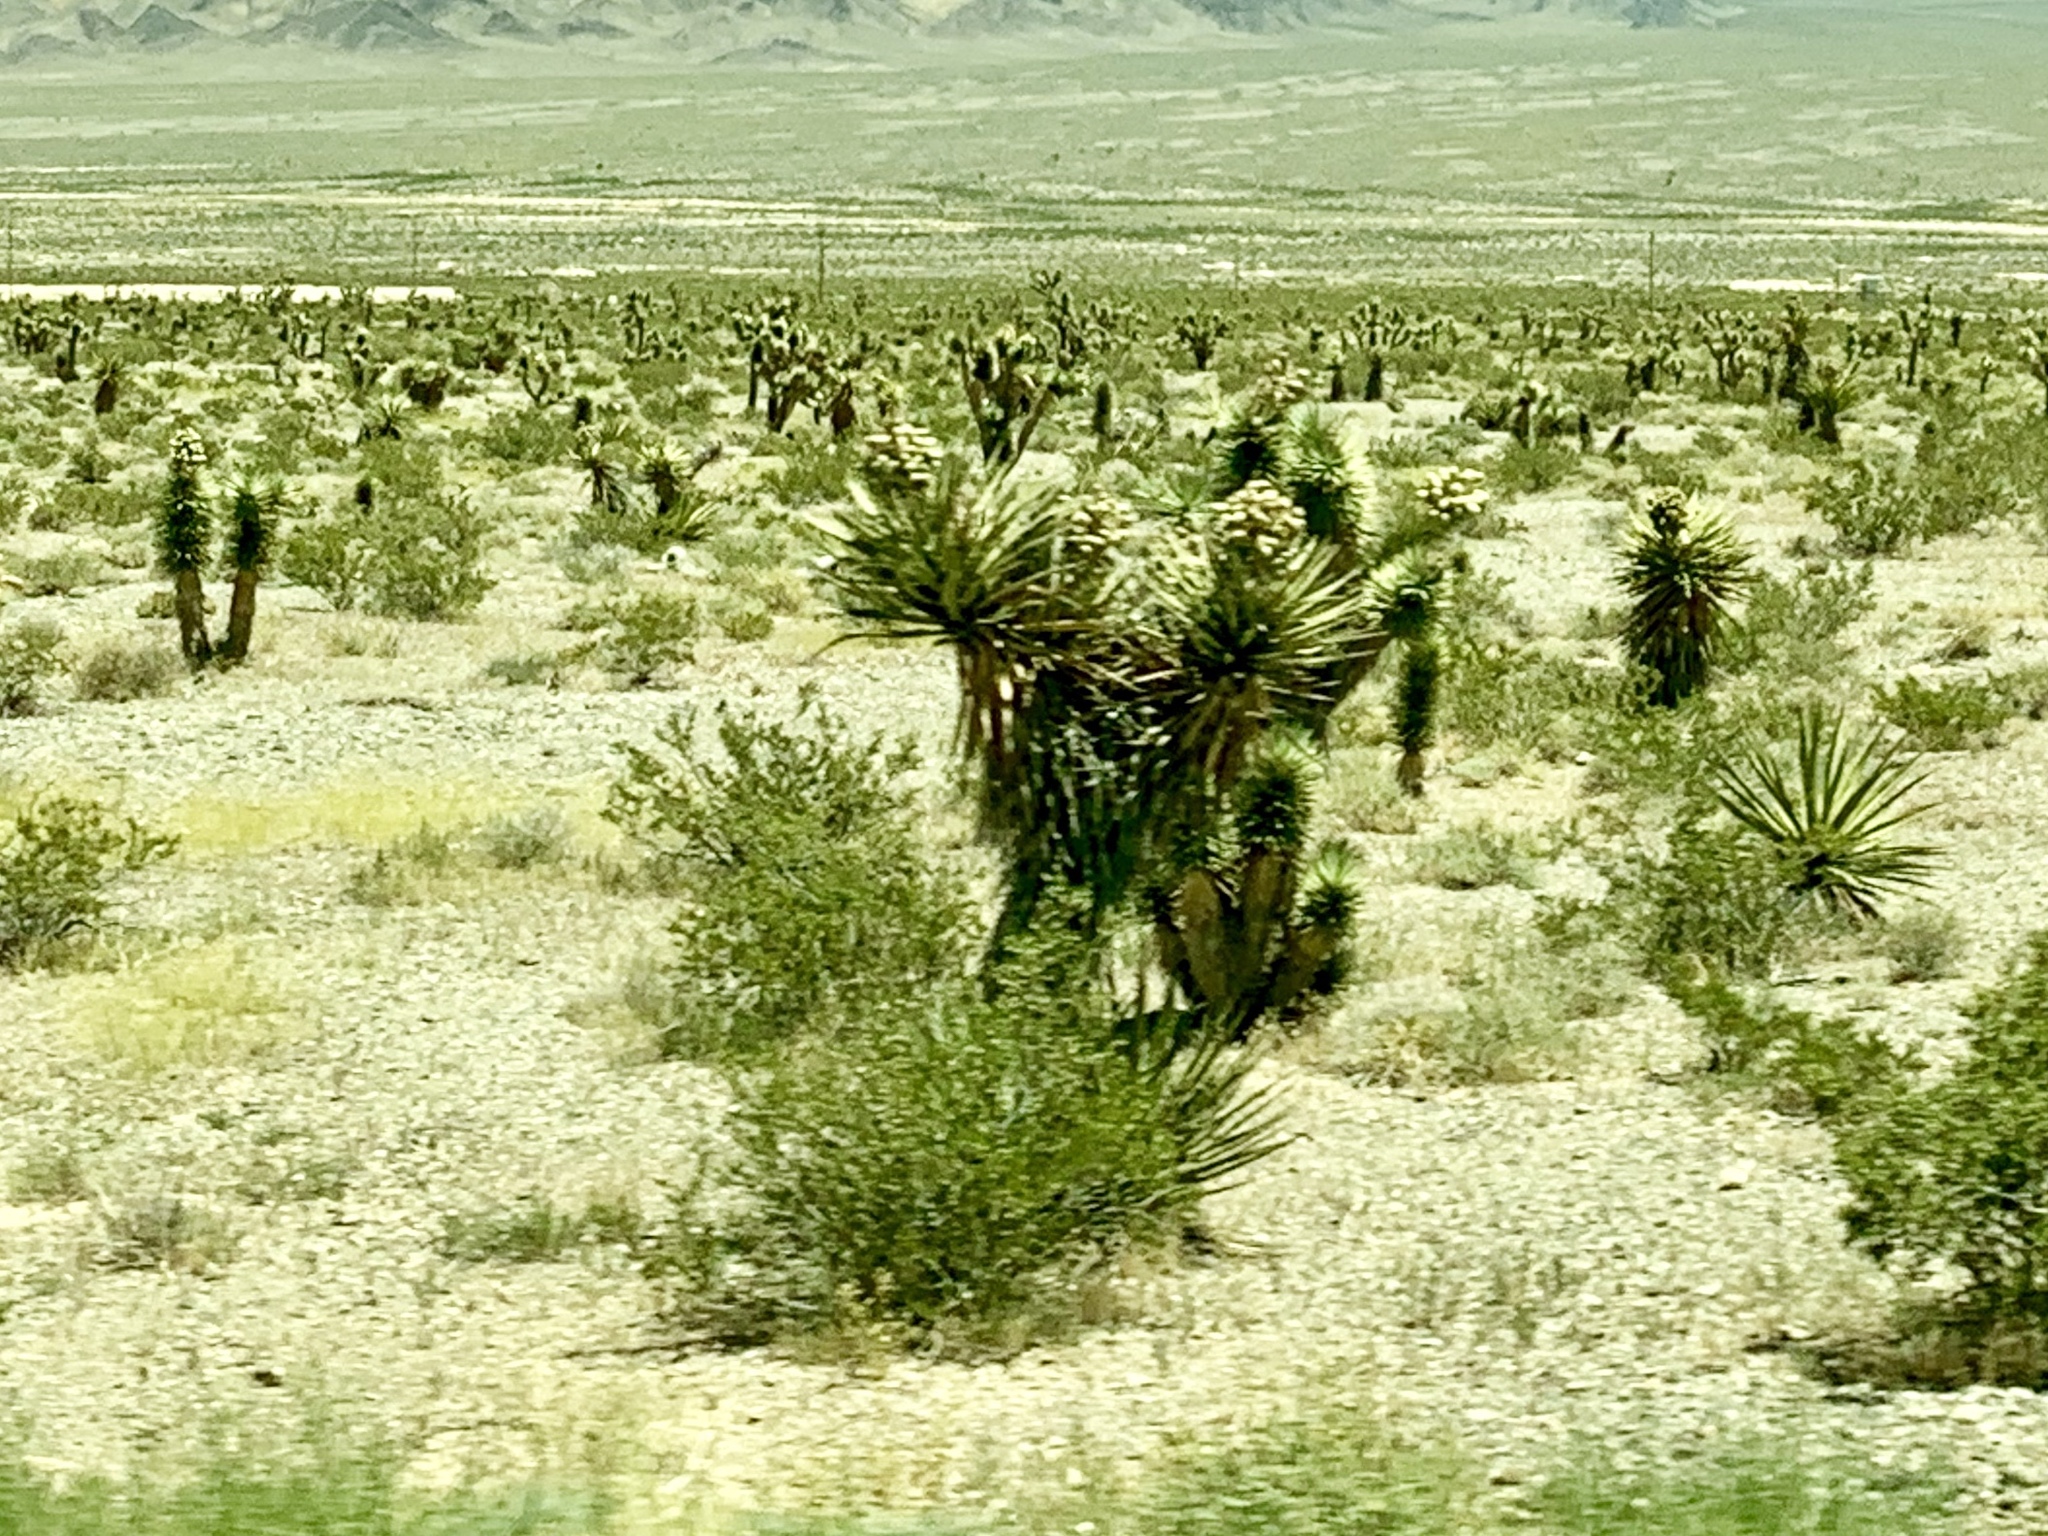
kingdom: Plantae
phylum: Tracheophyta
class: Liliopsida
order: Asparagales
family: Asparagaceae
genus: Yucca
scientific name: Yucca schidigera
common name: Mojave yucca
